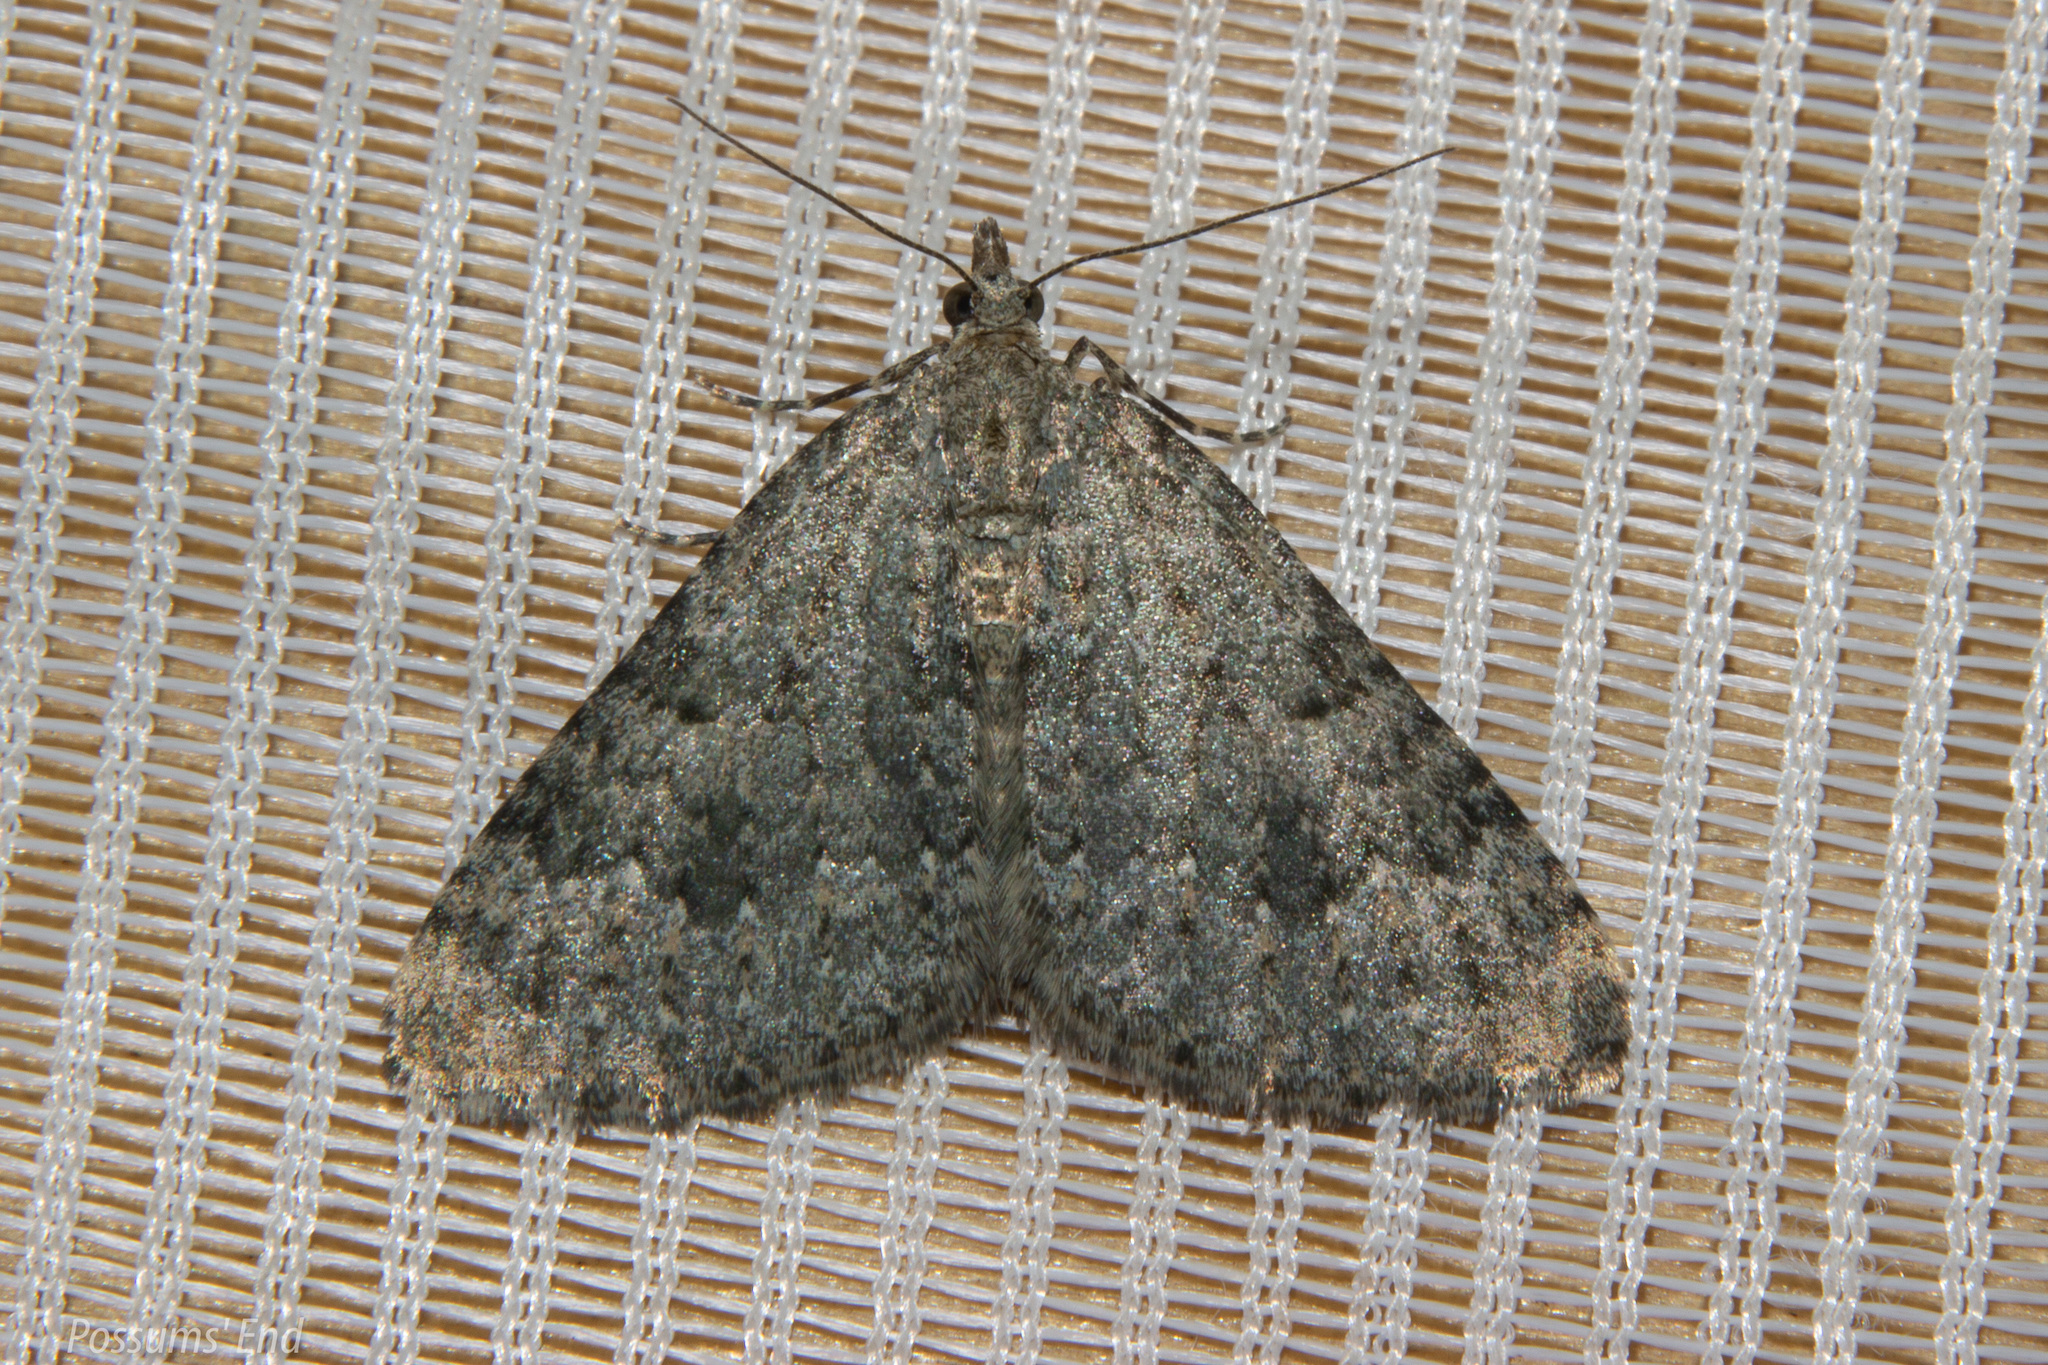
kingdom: Animalia
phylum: Arthropoda
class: Insecta
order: Lepidoptera
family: Geometridae
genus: Helastia
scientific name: Helastia corcularia
